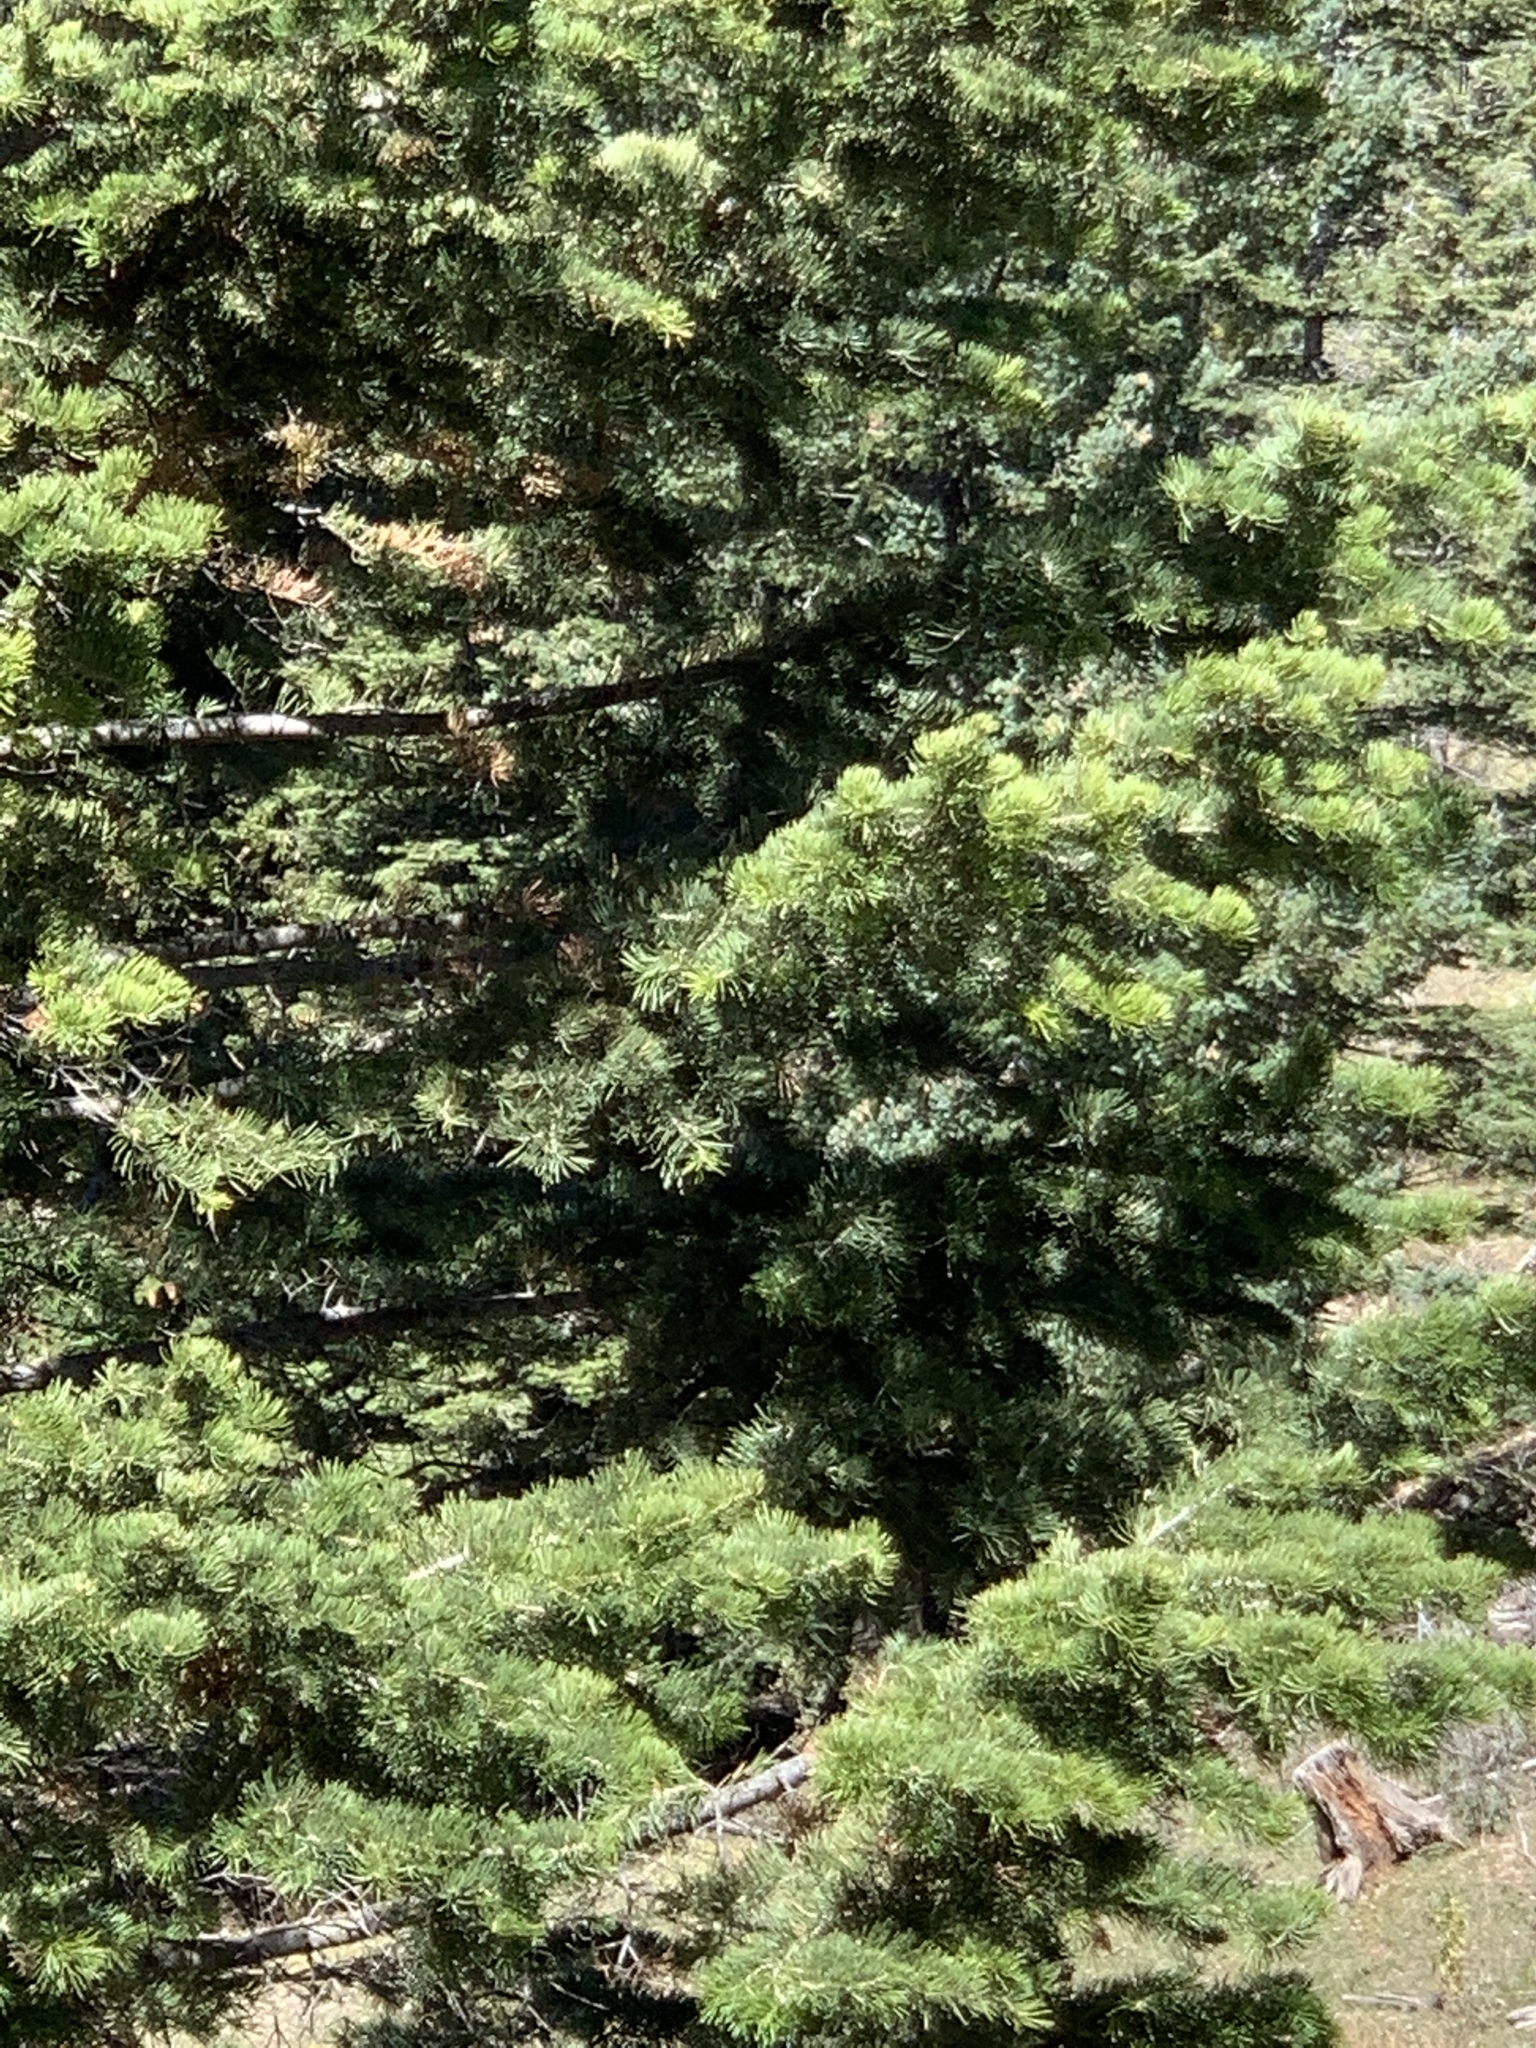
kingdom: Plantae
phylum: Tracheophyta
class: Pinopsida
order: Pinales
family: Pinaceae
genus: Abies
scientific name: Abies concolor
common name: Colorado fir
